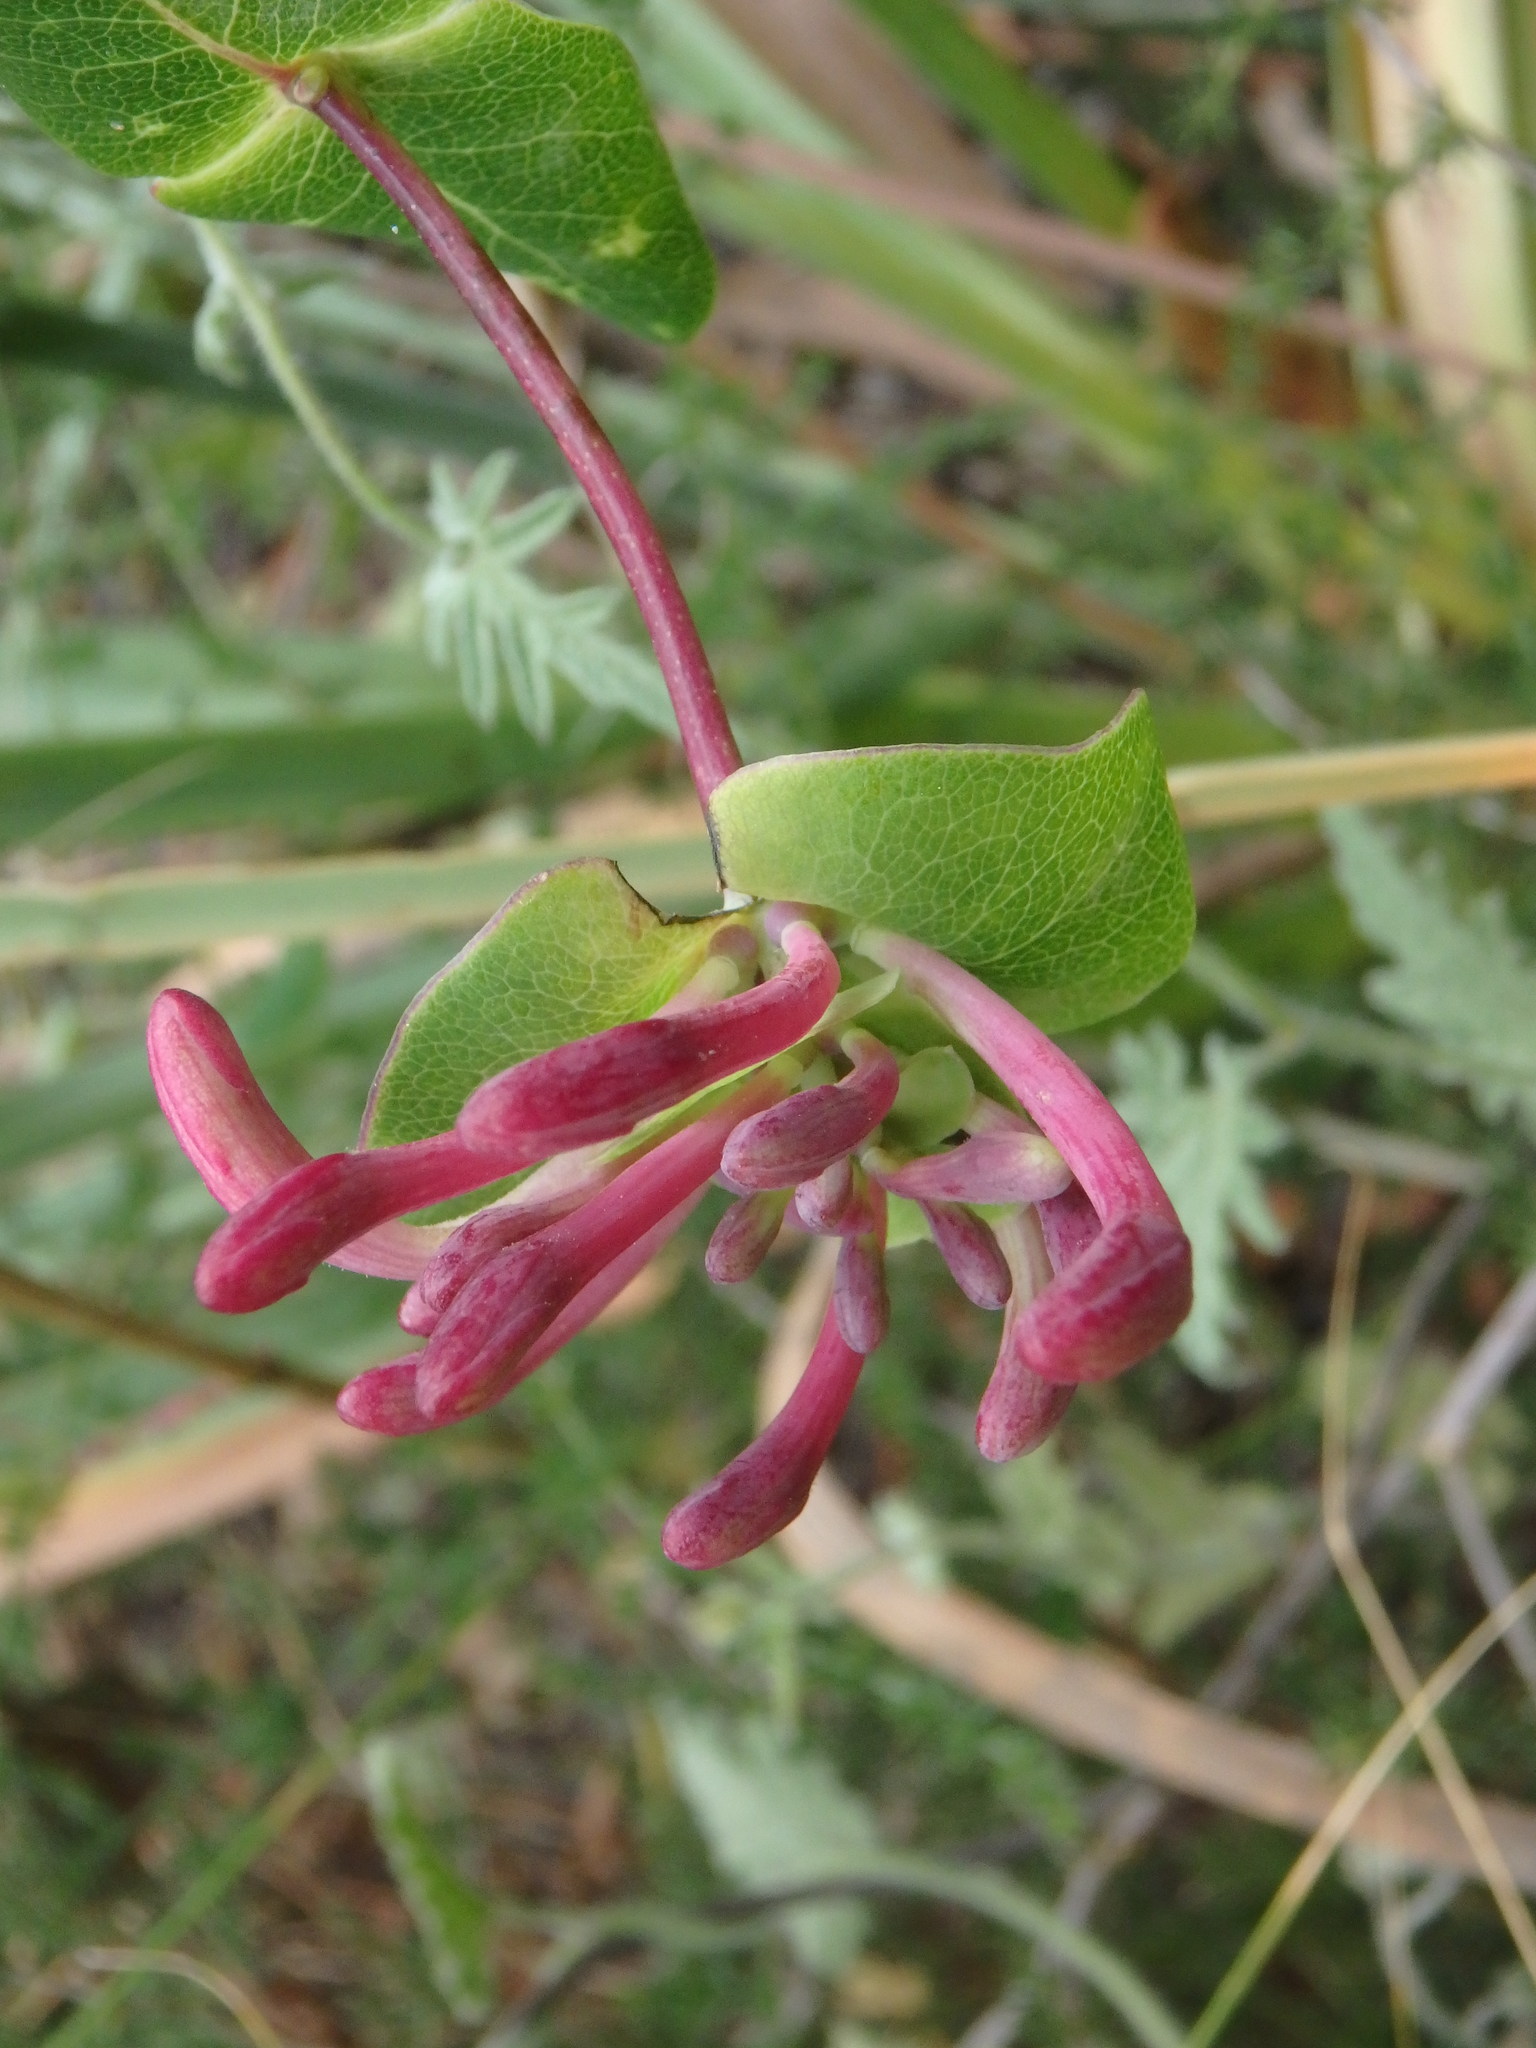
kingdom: Plantae
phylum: Tracheophyta
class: Magnoliopsida
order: Dipsacales
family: Caprifoliaceae
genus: Lonicera
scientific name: Lonicera implexa
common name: Minorca honeysuckle
